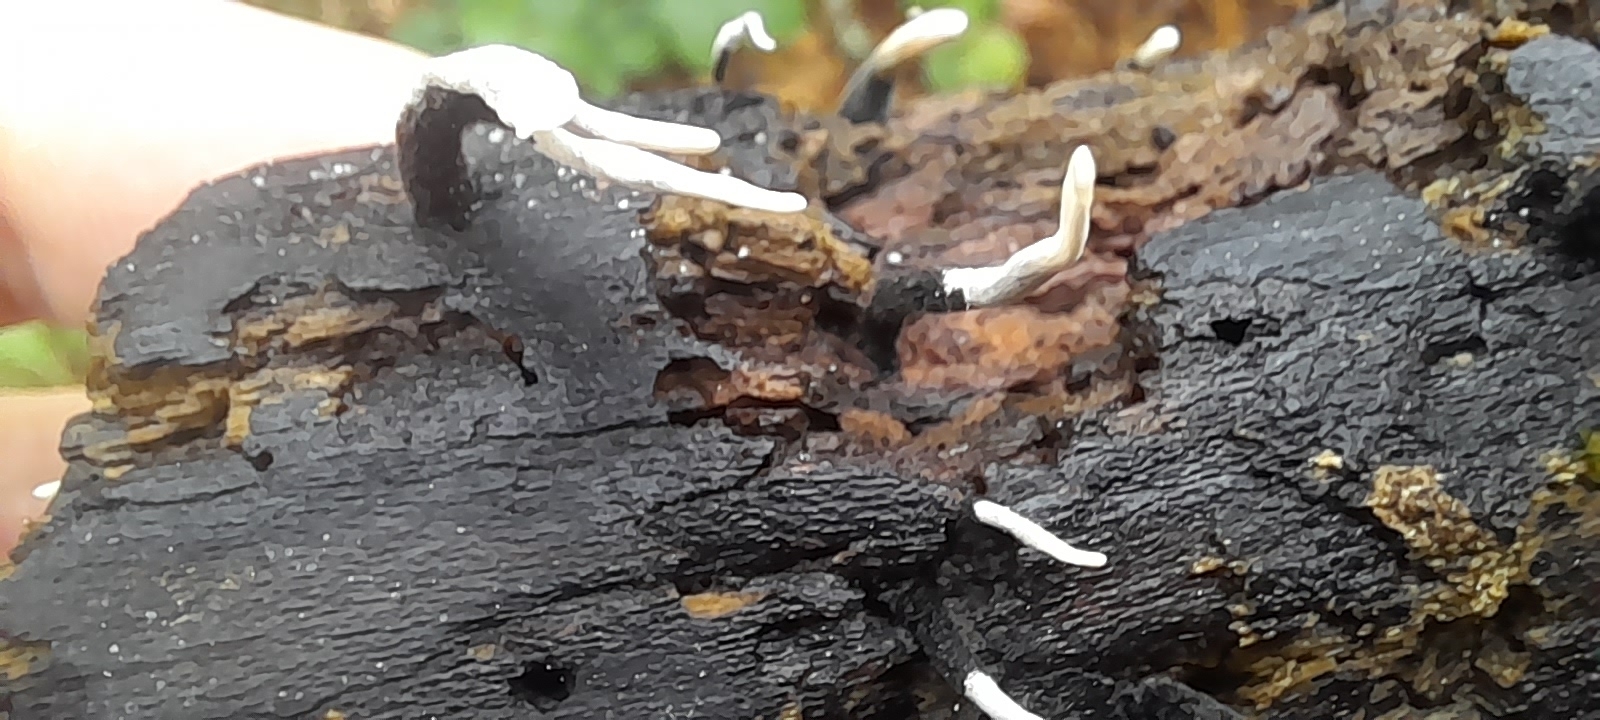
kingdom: Fungi
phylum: Ascomycota
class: Sordariomycetes
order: Xylariales
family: Xylariaceae
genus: Xylaria
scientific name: Xylaria hypoxylon
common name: Candle-snuff fungus
